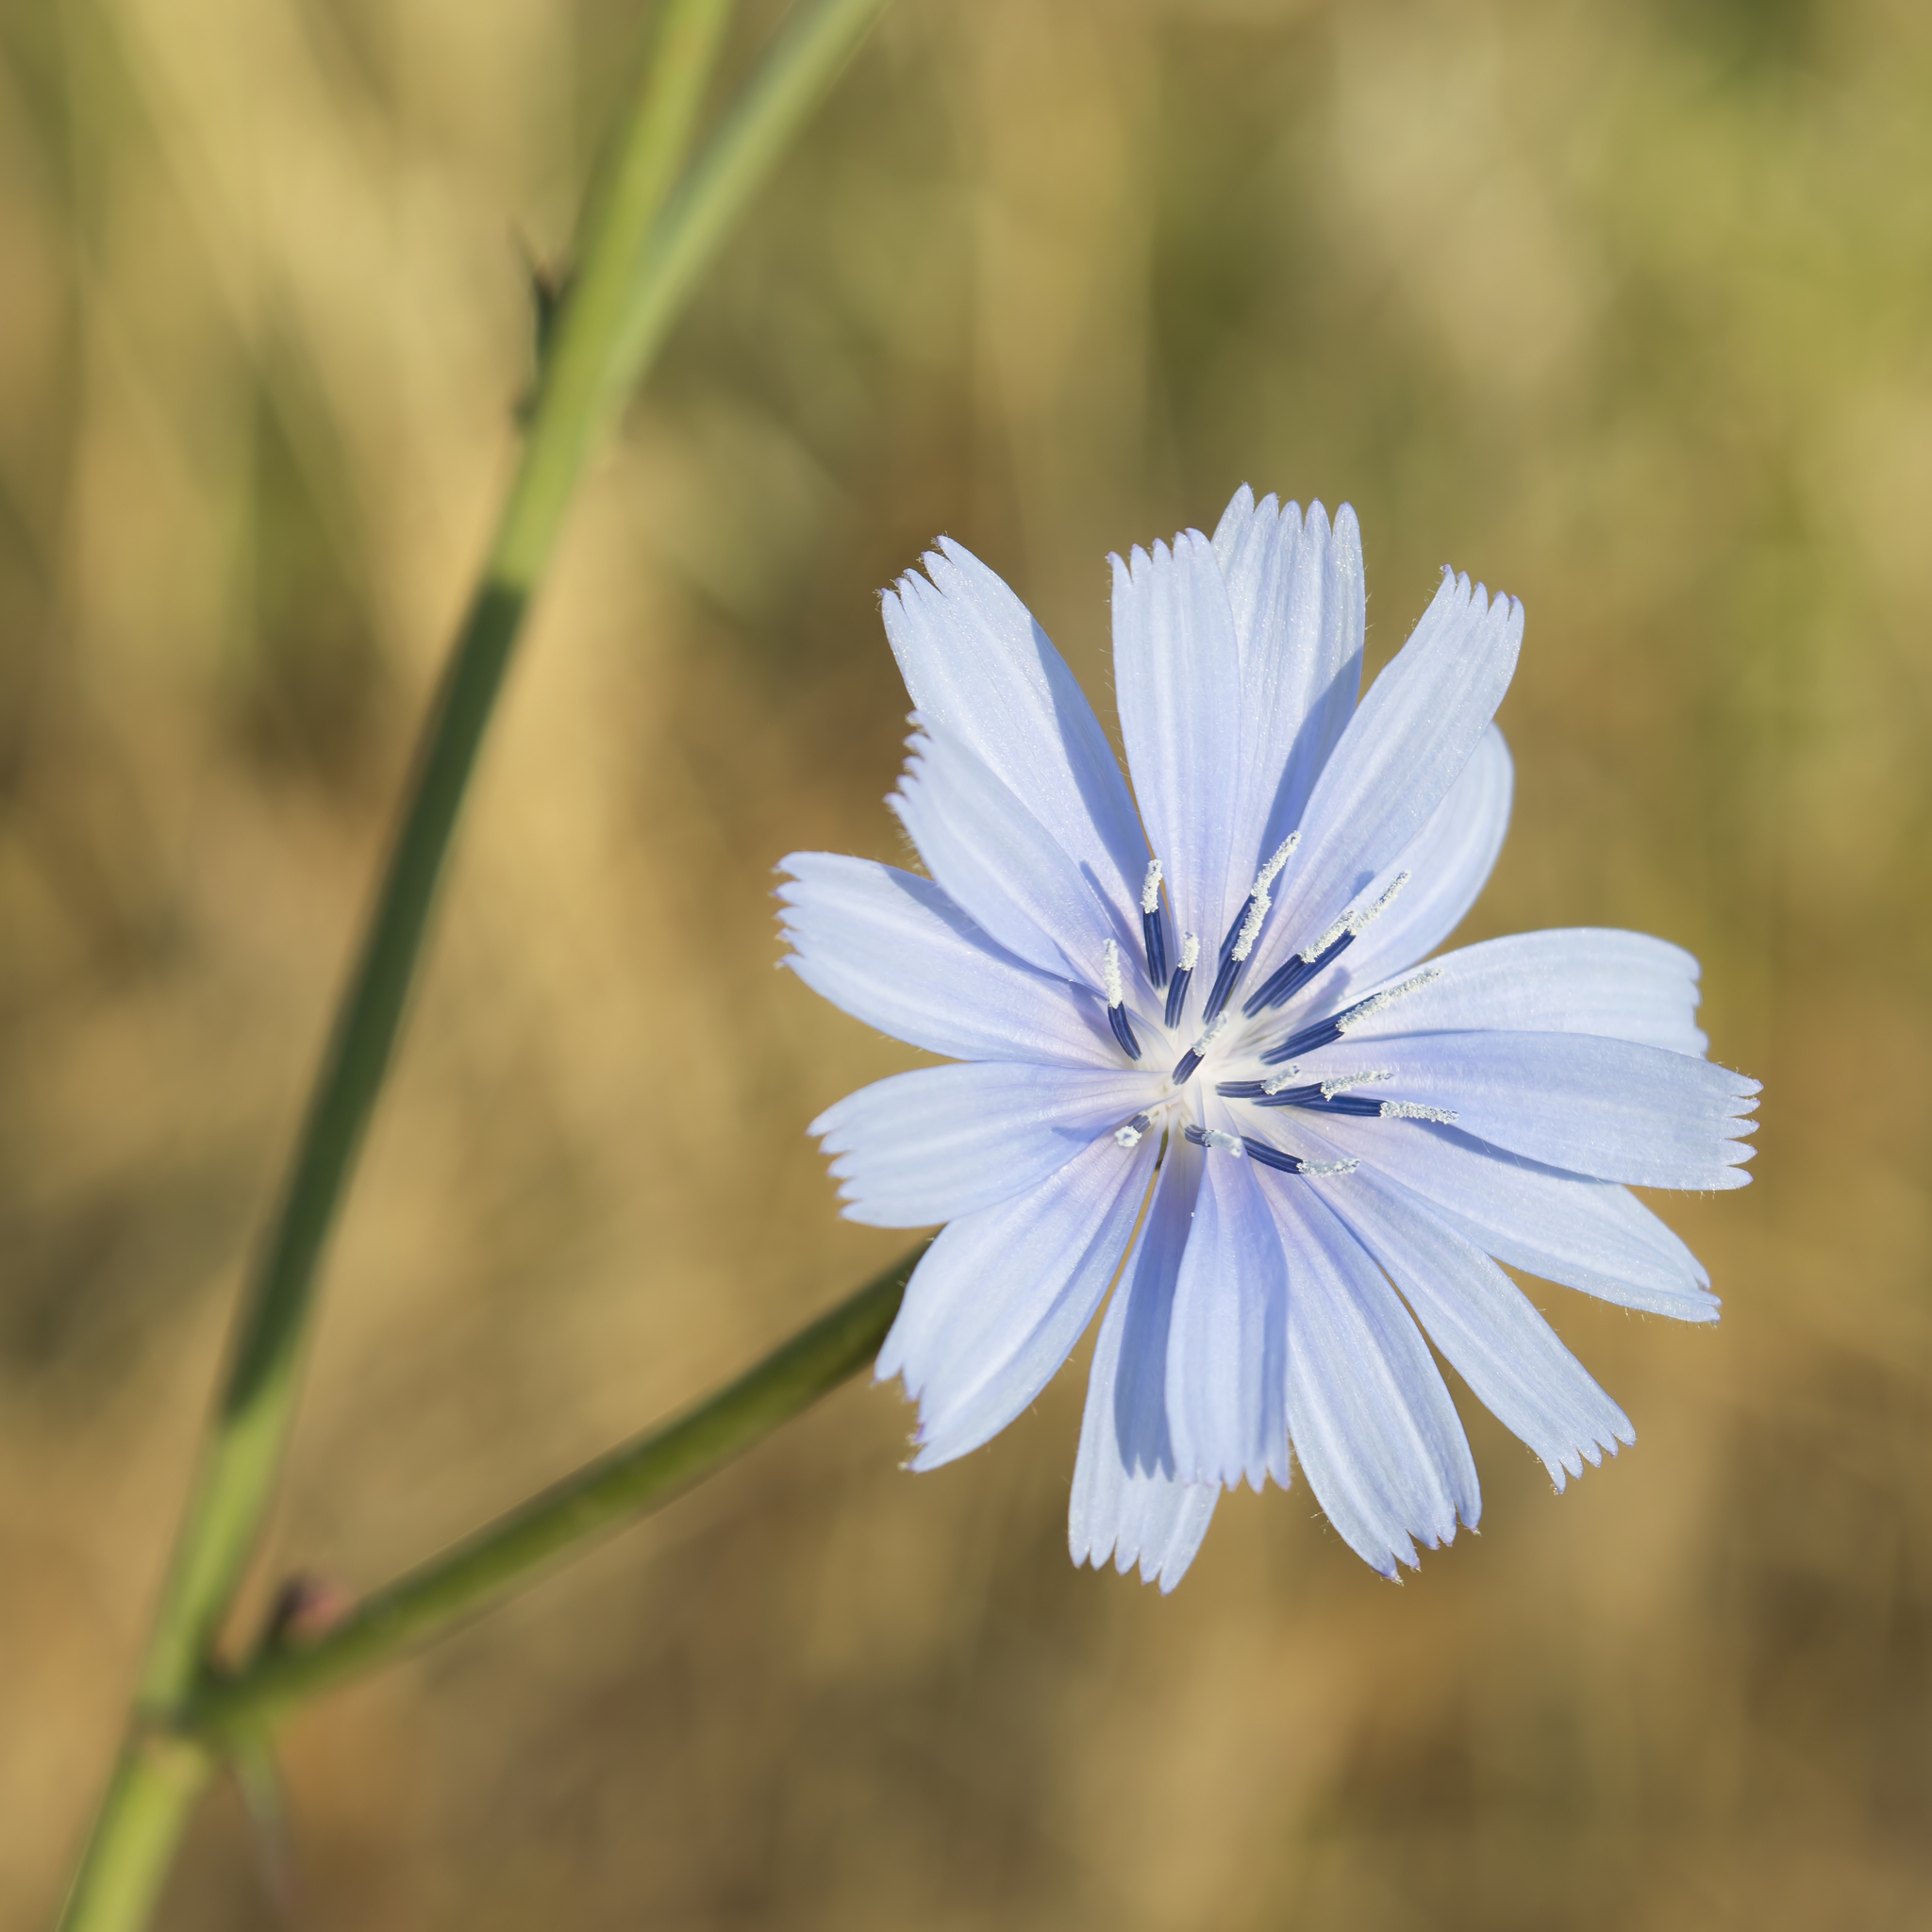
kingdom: Plantae
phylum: Tracheophyta
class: Magnoliopsida
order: Asterales
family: Asteraceae
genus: Cichorium
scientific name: Cichorium intybus
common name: Chicory
